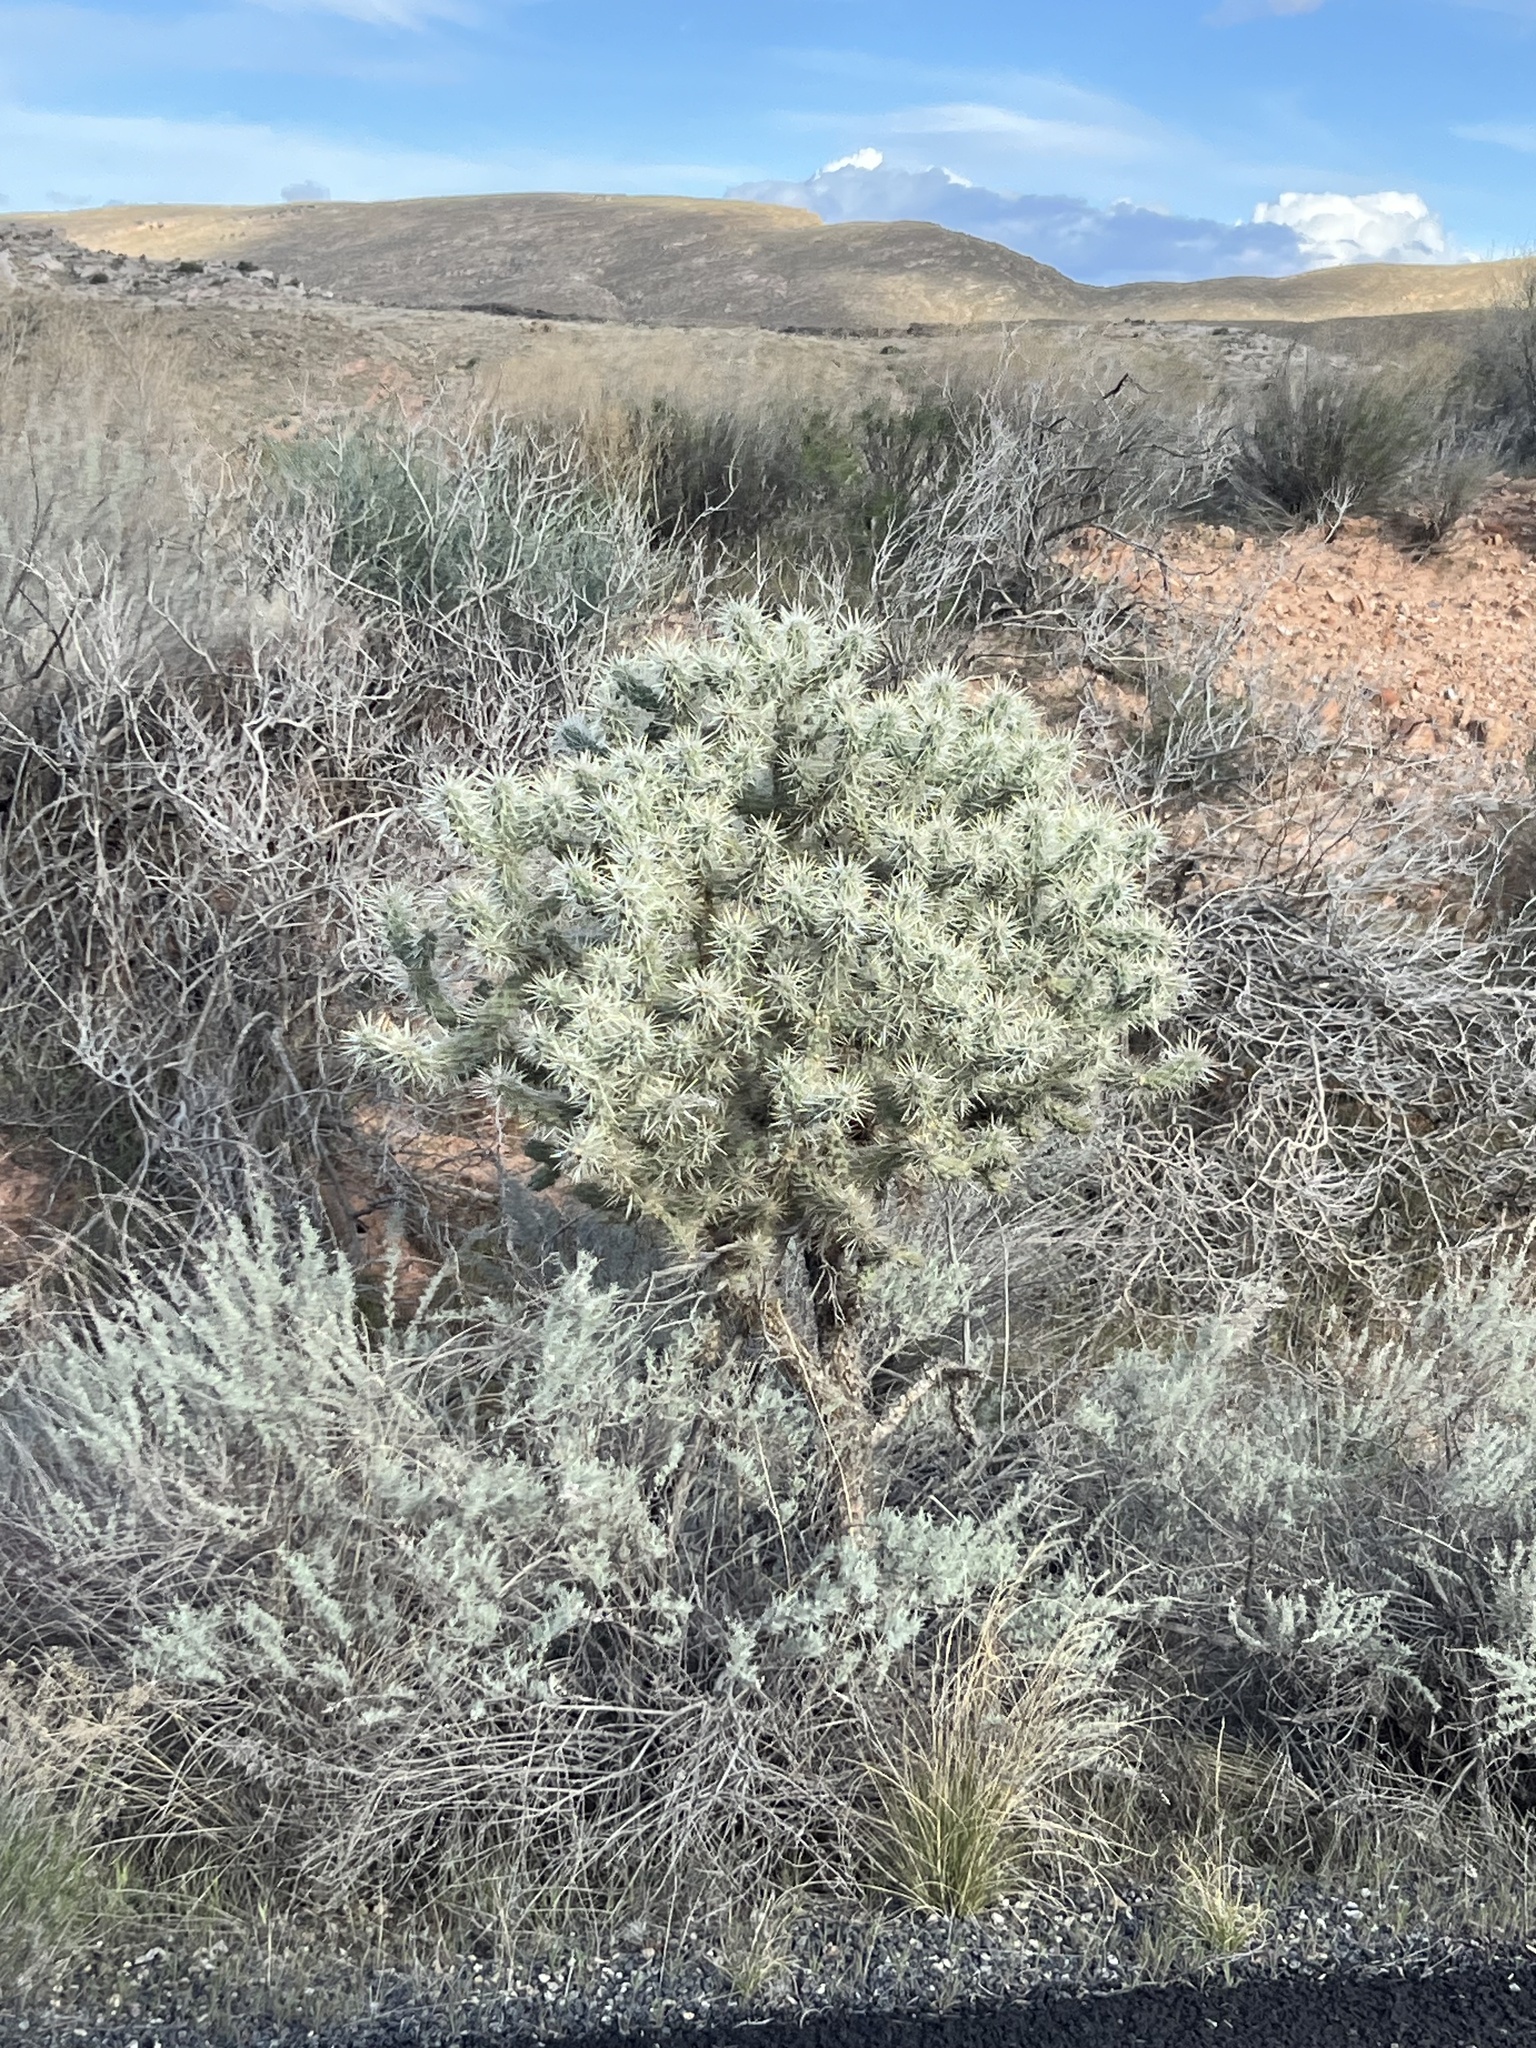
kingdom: Plantae
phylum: Tracheophyta
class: Magnoliopsida
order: Caryophyllales
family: Cactaceae
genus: Cylindropuntia
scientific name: Cylindropuntia echinocarpa
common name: Ground cholla
